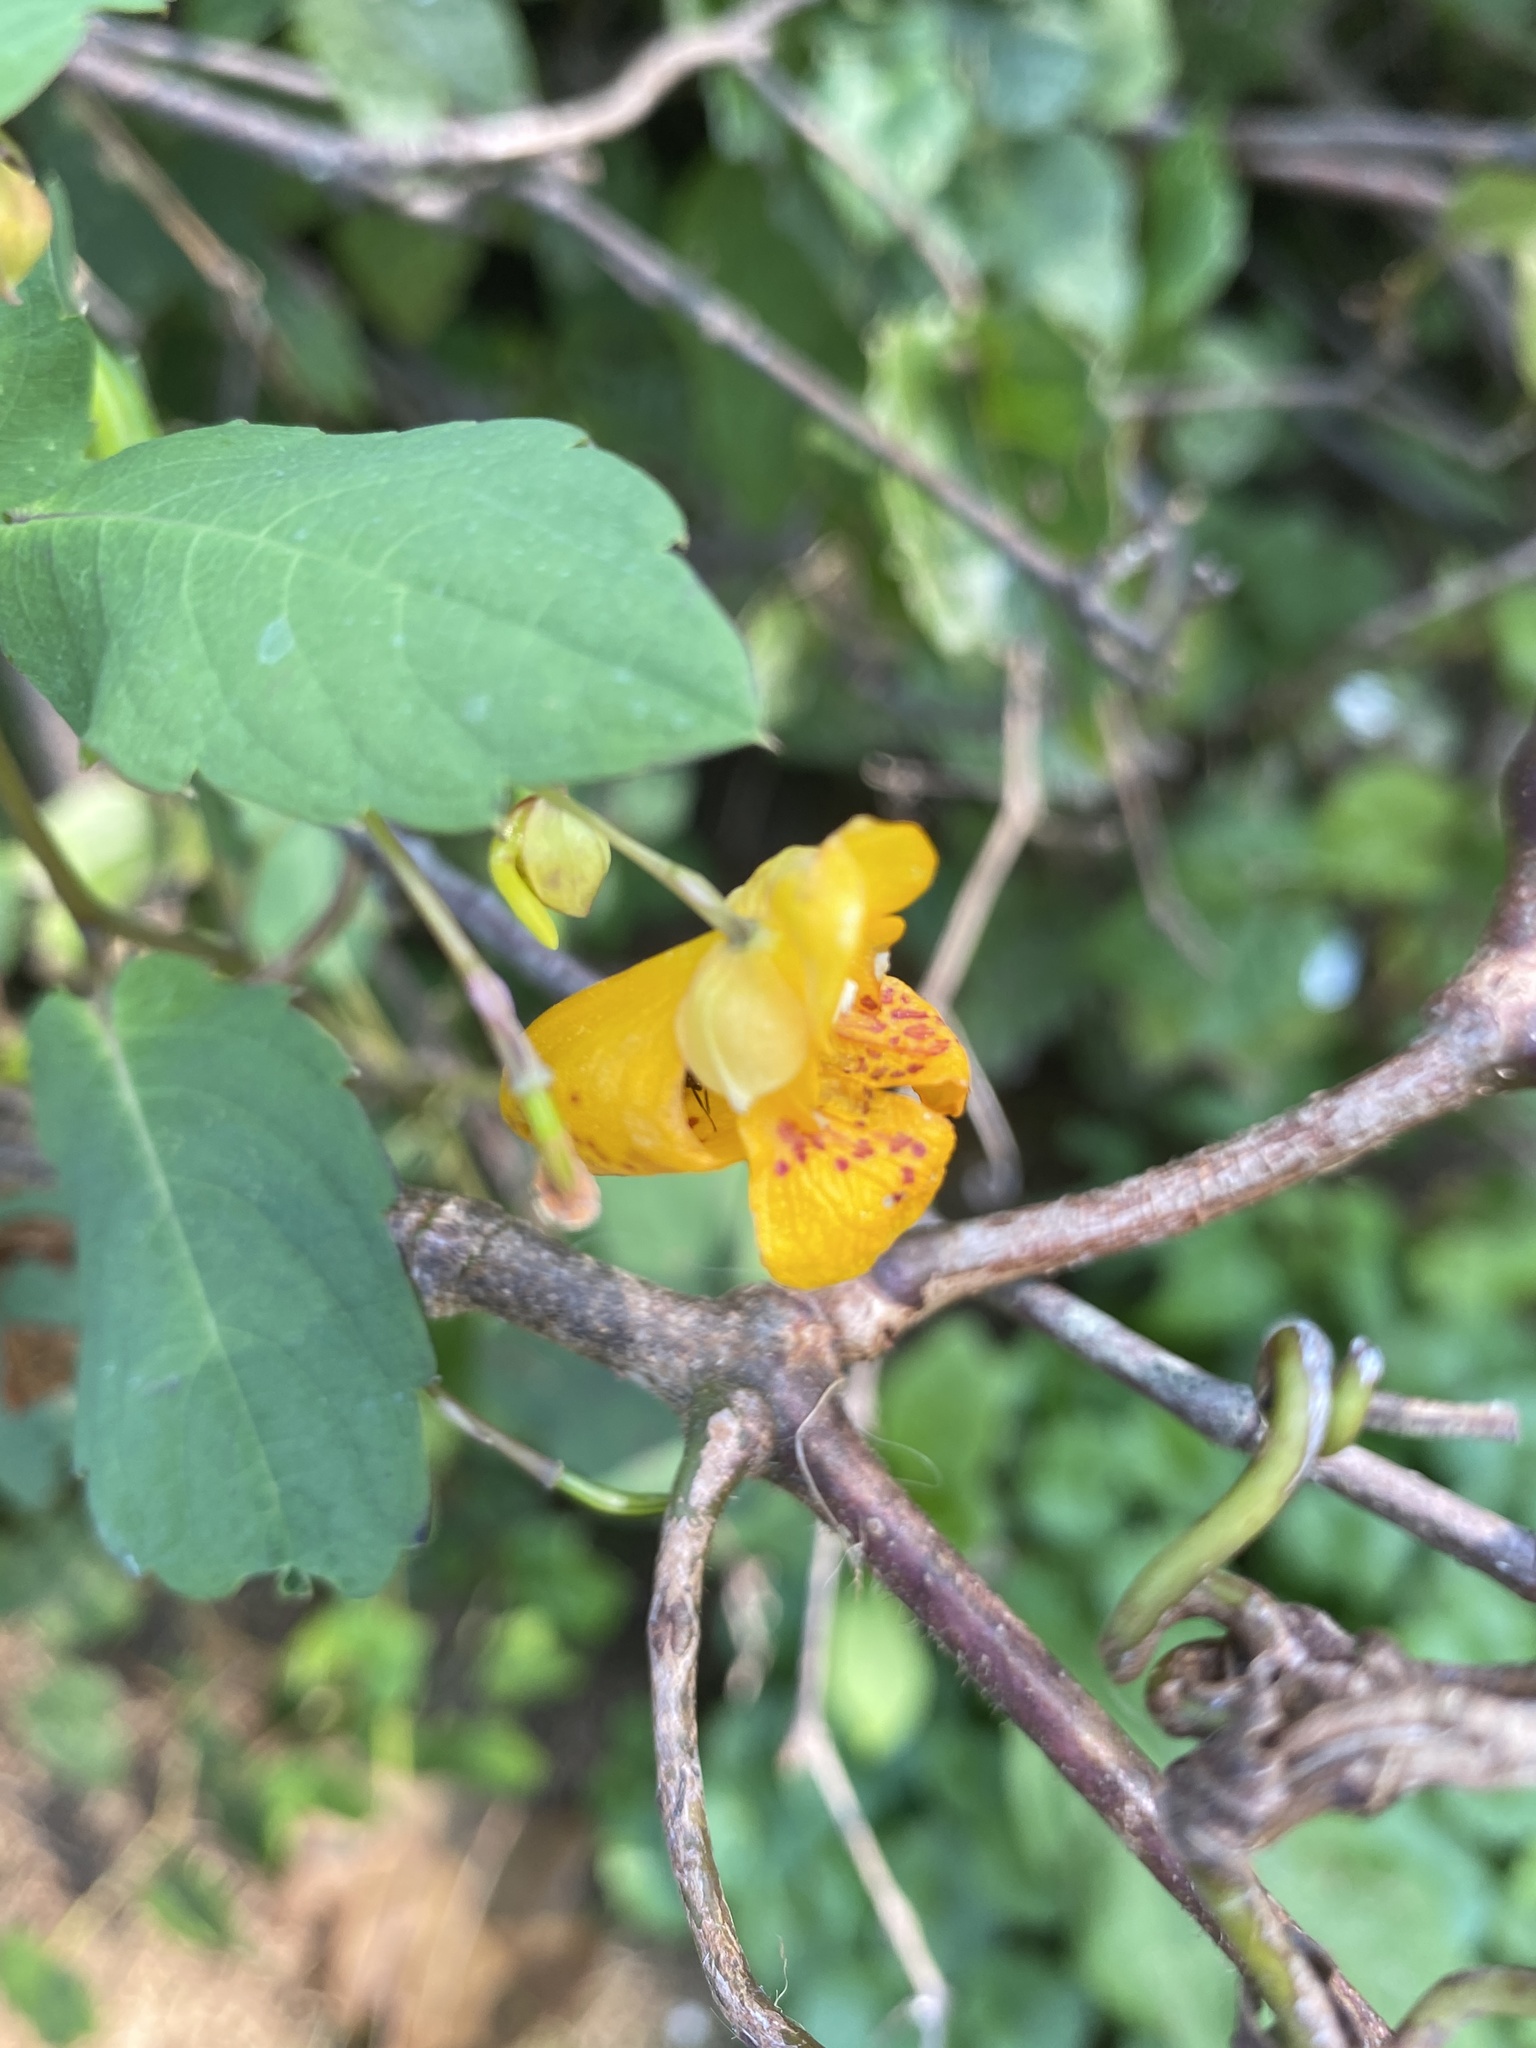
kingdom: Plantae
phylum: Tracheophyta
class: Magnoliopsida
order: Ericales
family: Balsaminaceae
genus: Impatiens
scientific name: Impatiens capensis
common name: Orange balsam
